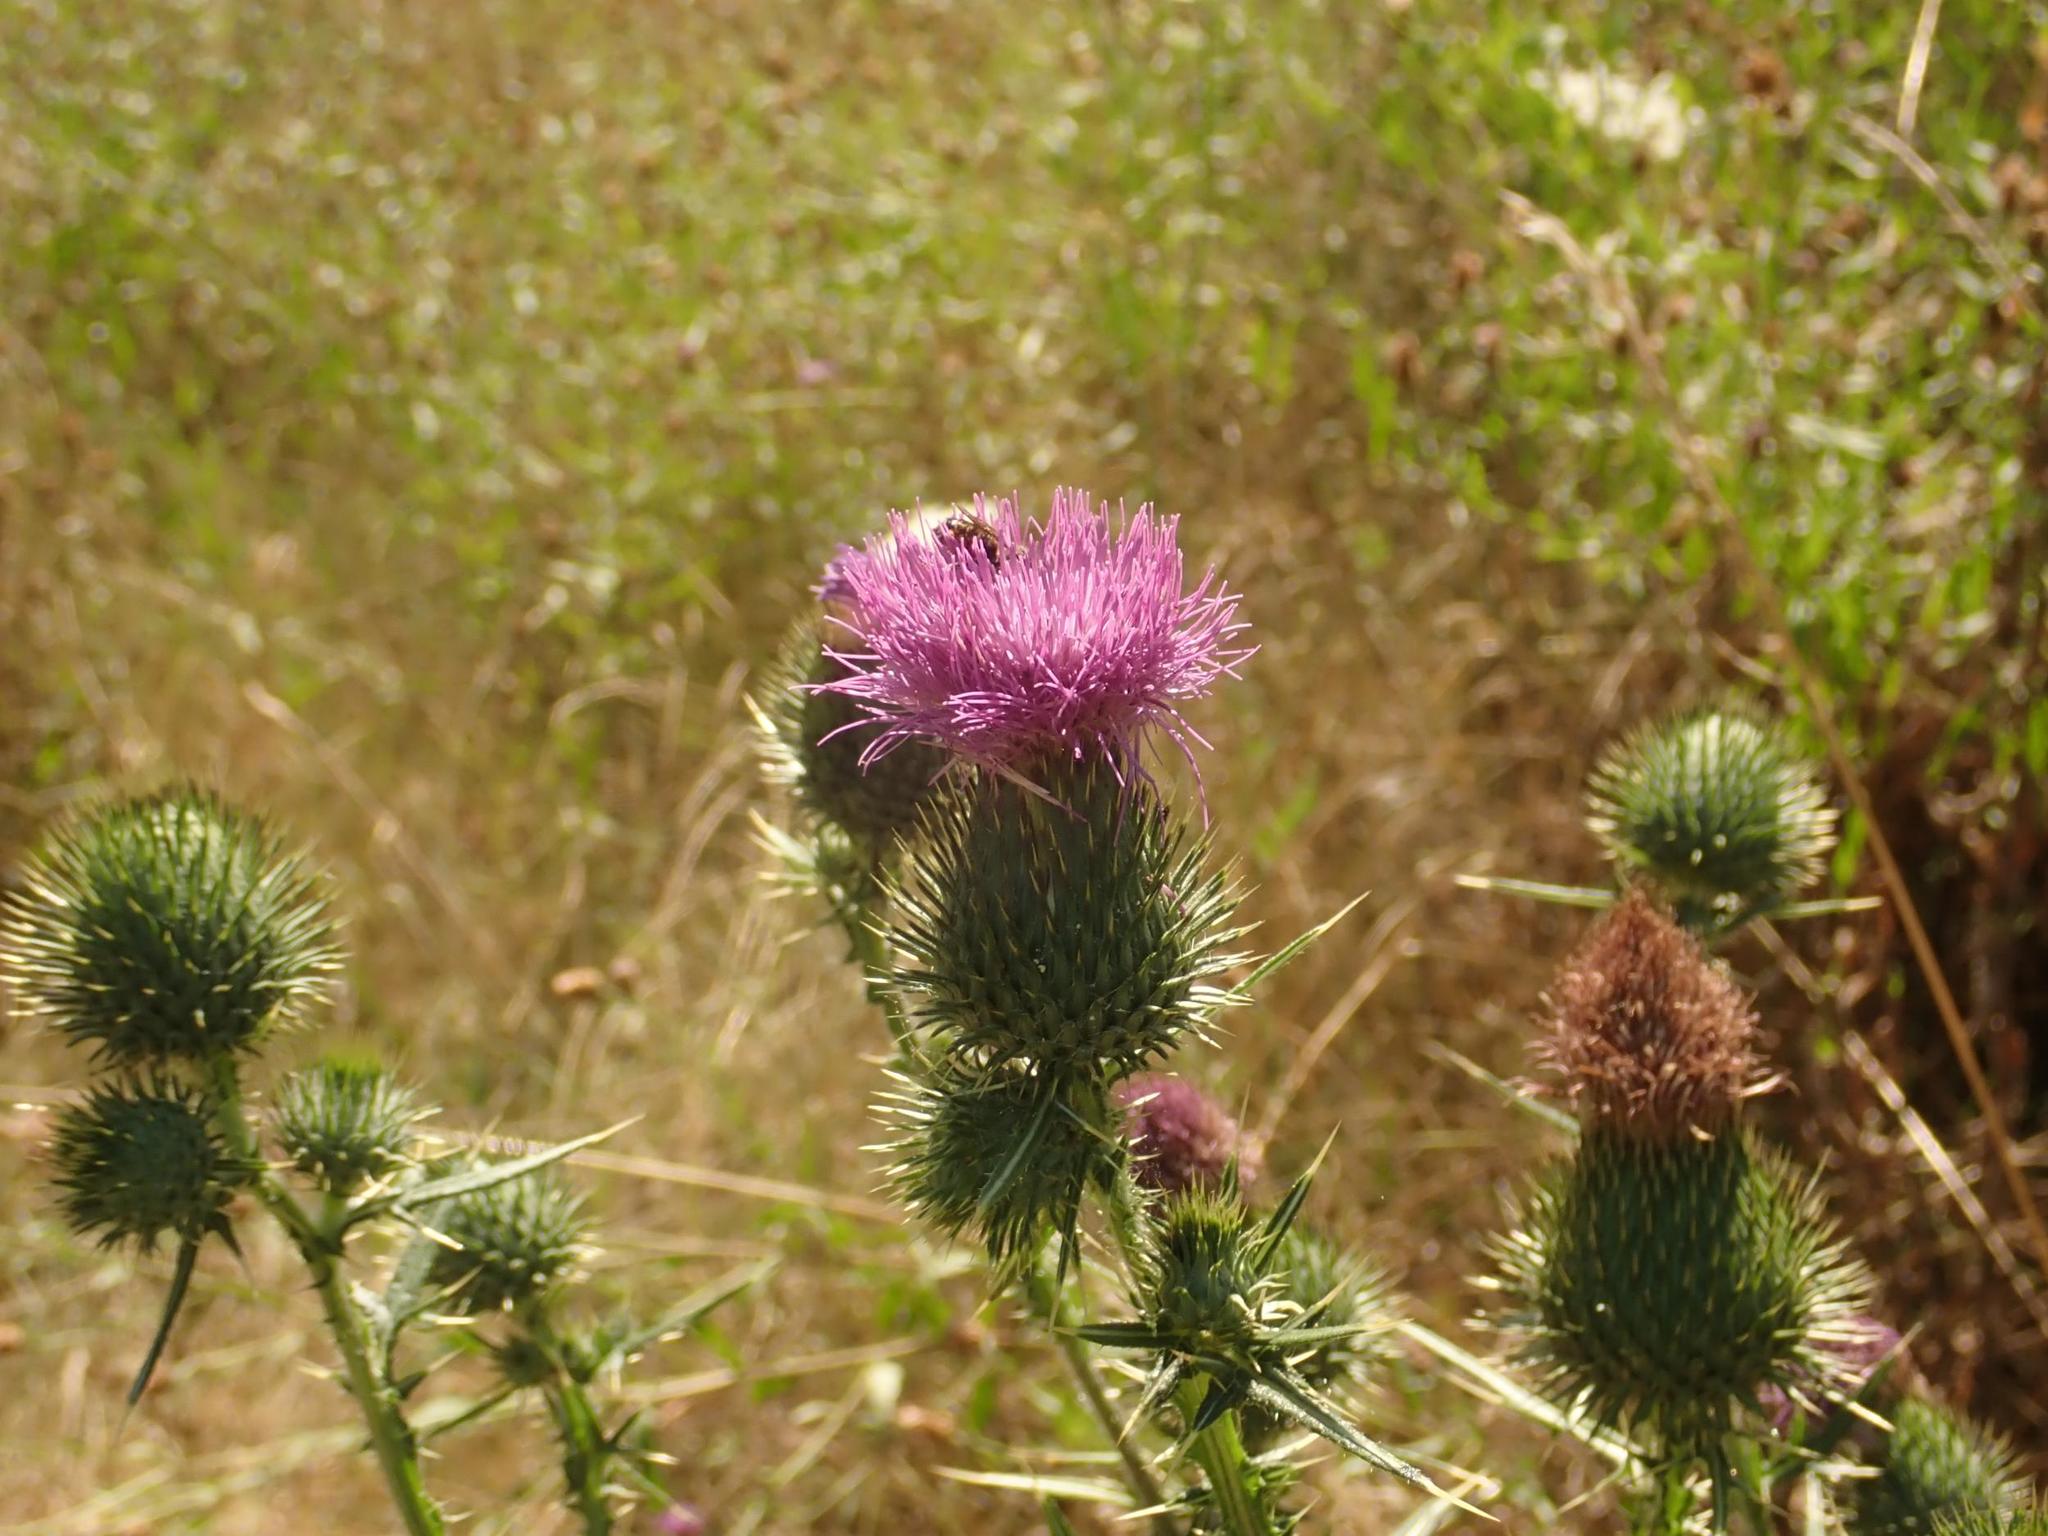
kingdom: Plantae
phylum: Tracheophyta
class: Magnoliopsida
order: Asterales
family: Asteraceae
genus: Cirsium
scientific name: Cirsium vulgare
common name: Bull thistle
